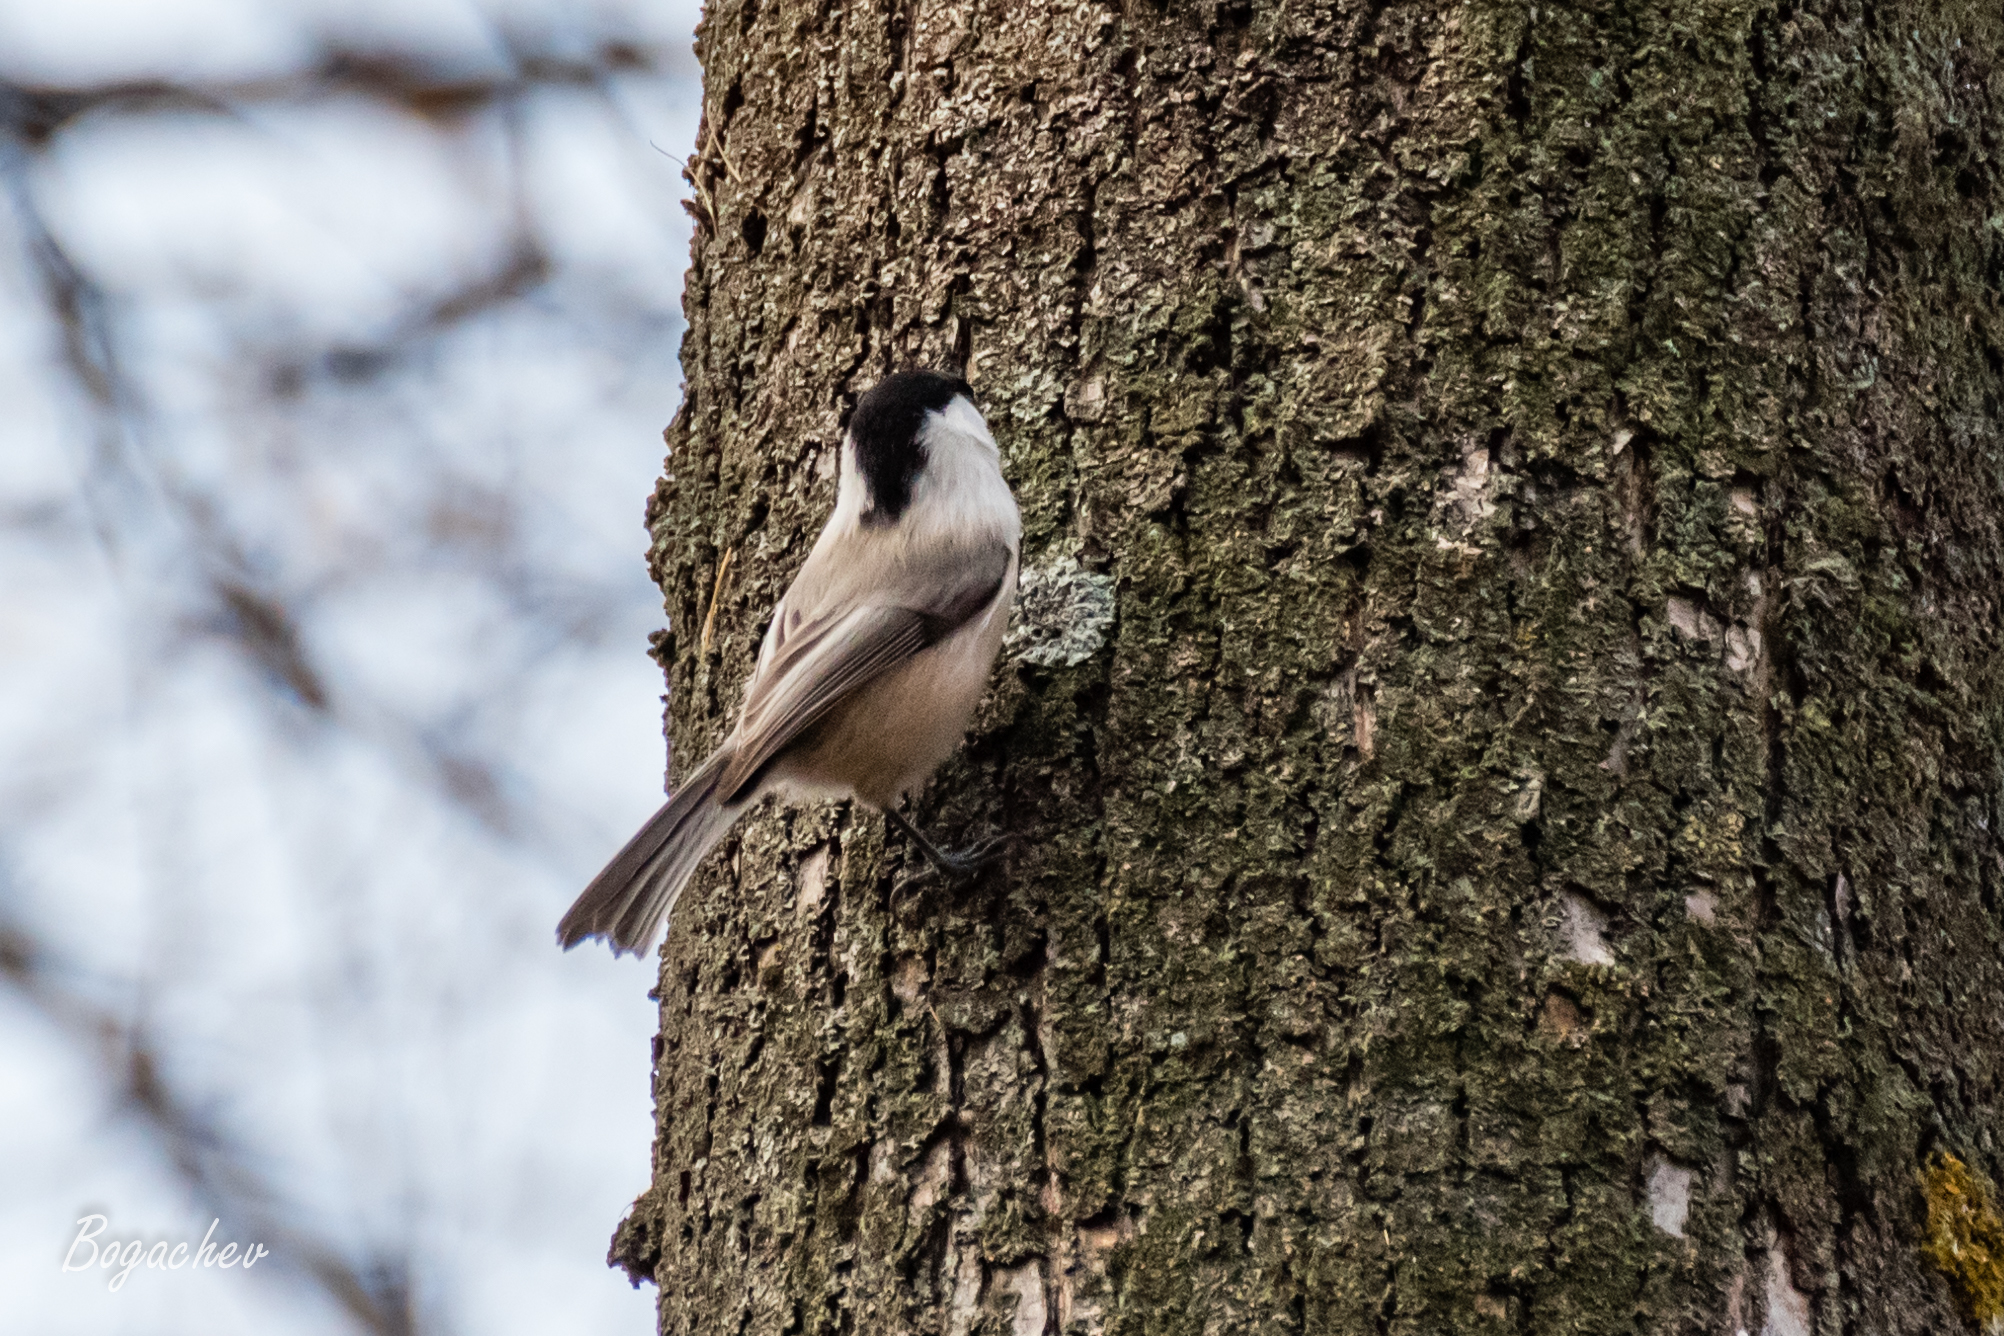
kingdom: Animalia
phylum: Chordata
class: Aves
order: Passeriformes
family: Paridae
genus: Poecile
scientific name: Poecile montanus
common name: Willow tit
